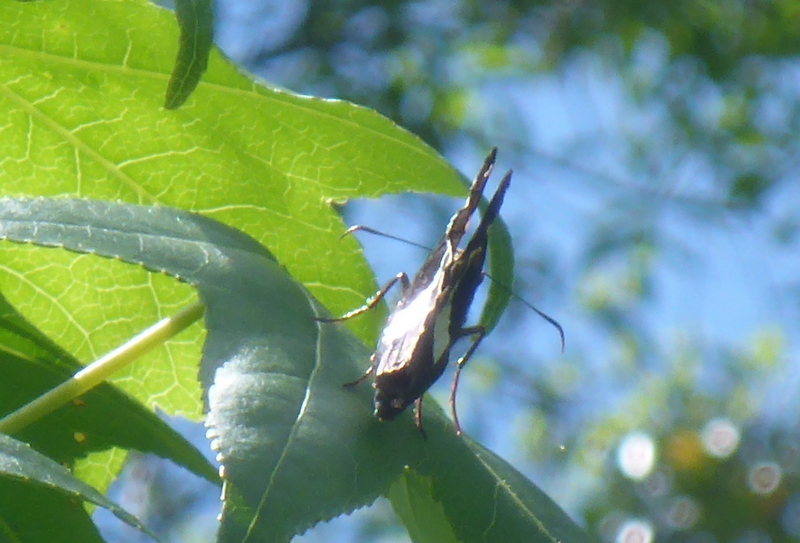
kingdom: Animalia
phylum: Arthropoda
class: Insecta
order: Lepidoptera
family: Hesperiidae
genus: Epargyreus
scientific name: Epargyreus clarus
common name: Silver-spotted skipper
